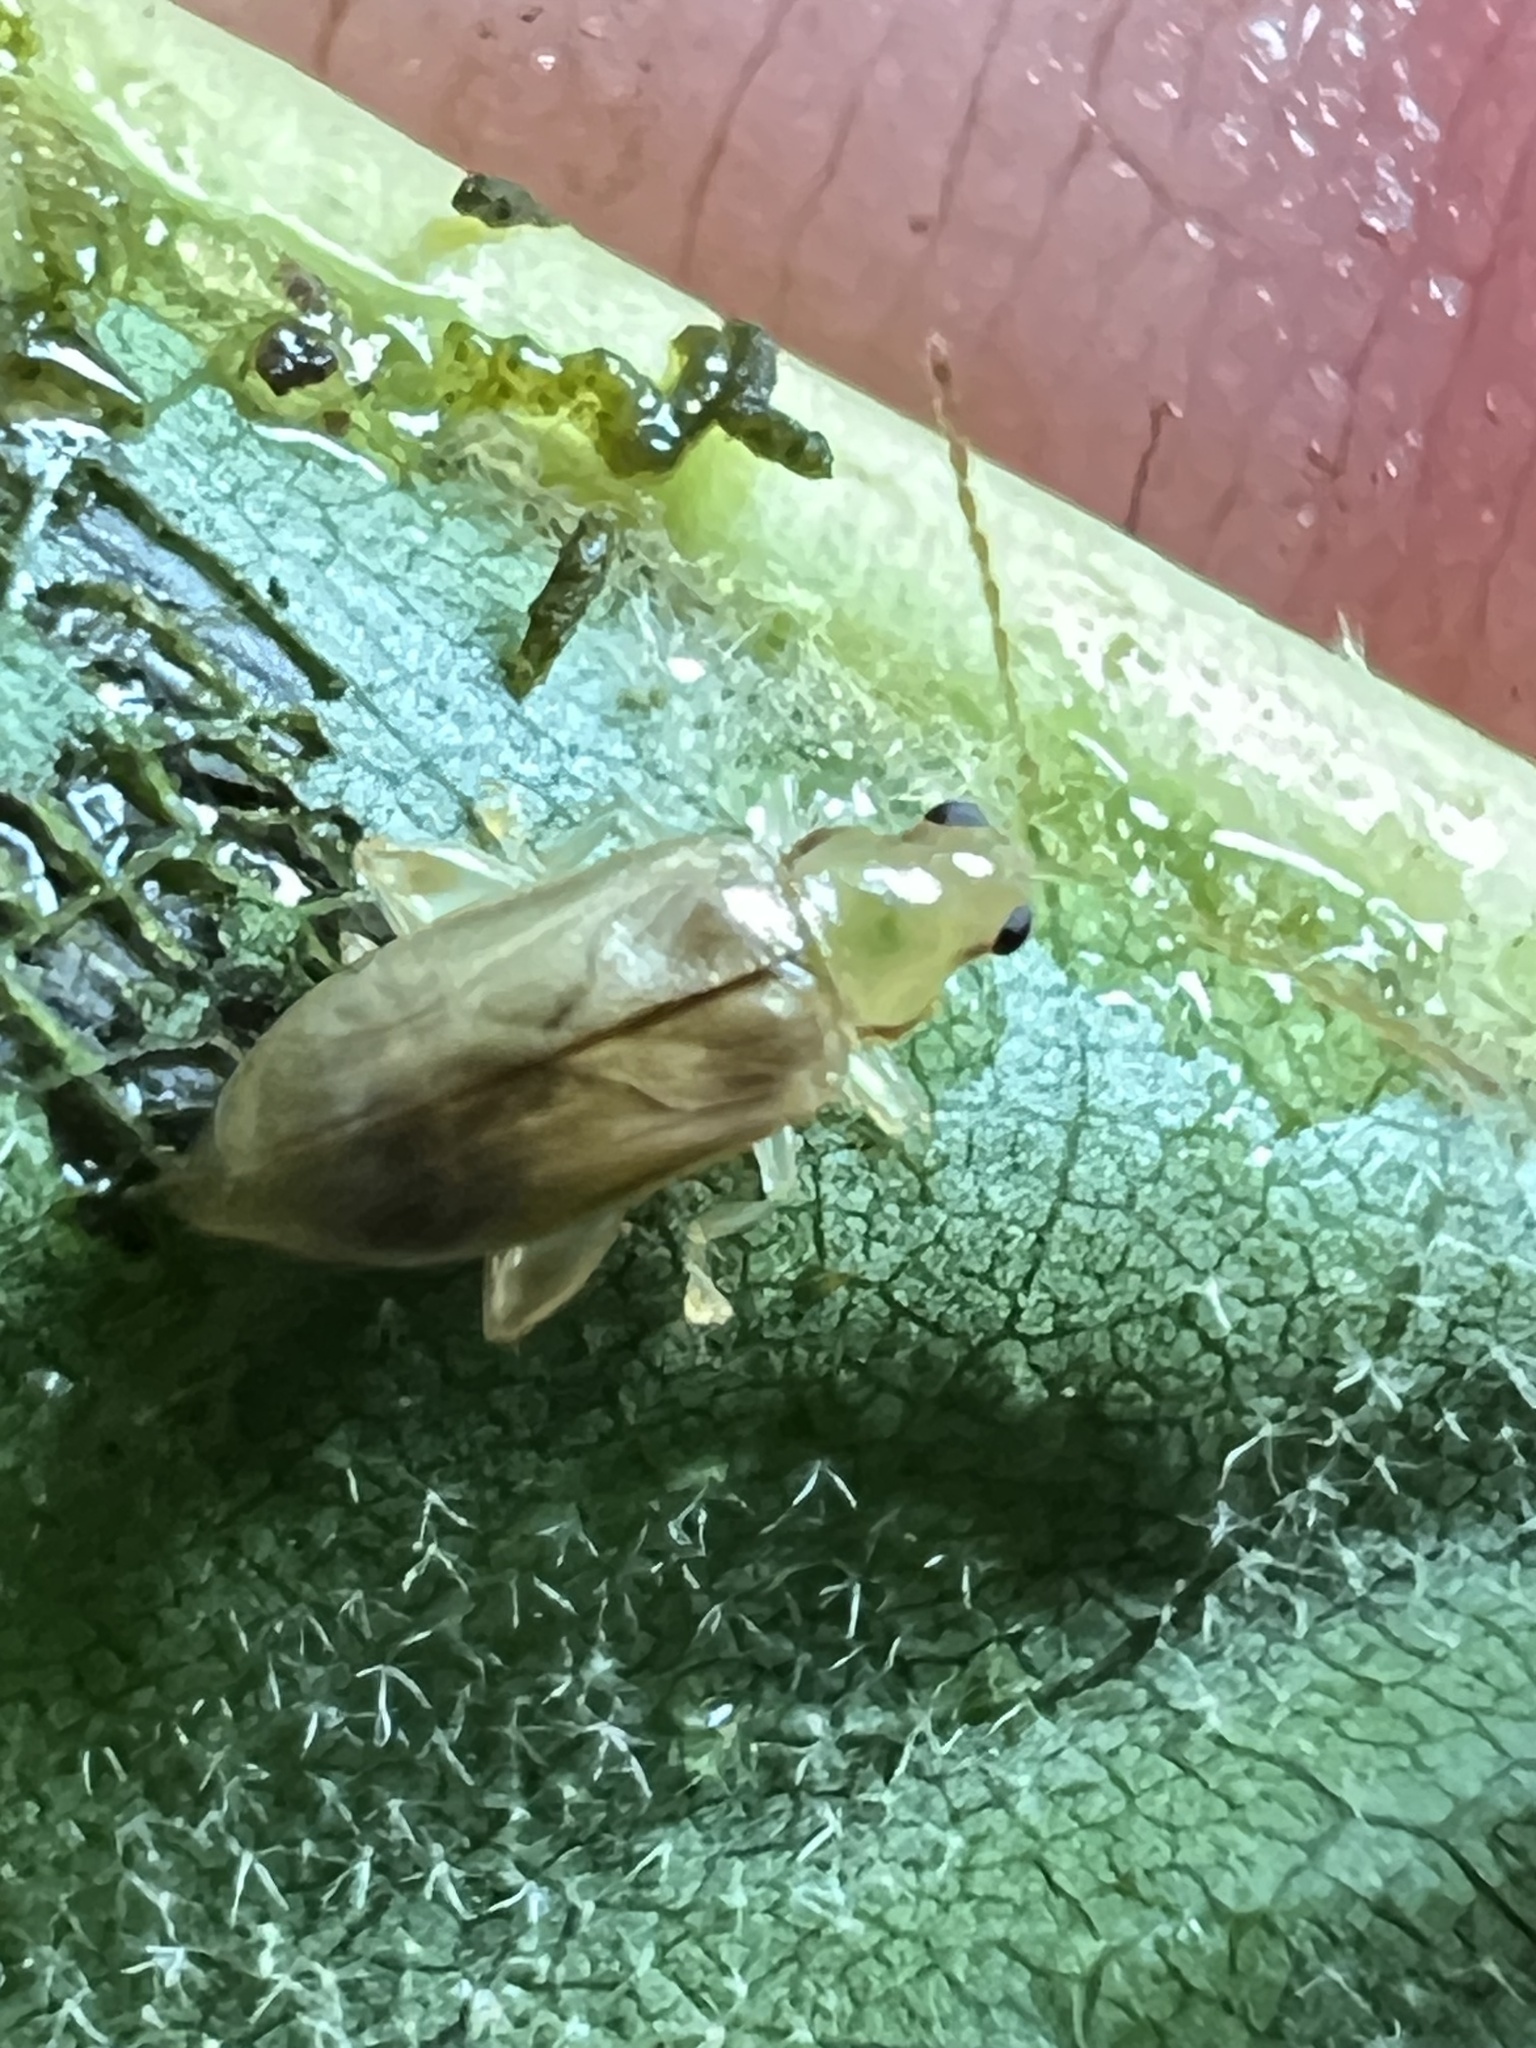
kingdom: Animalia
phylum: Arthropoda
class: Insecta
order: Coleoptera
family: Chrysomelidae
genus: Systena
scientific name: Systena marginalis
